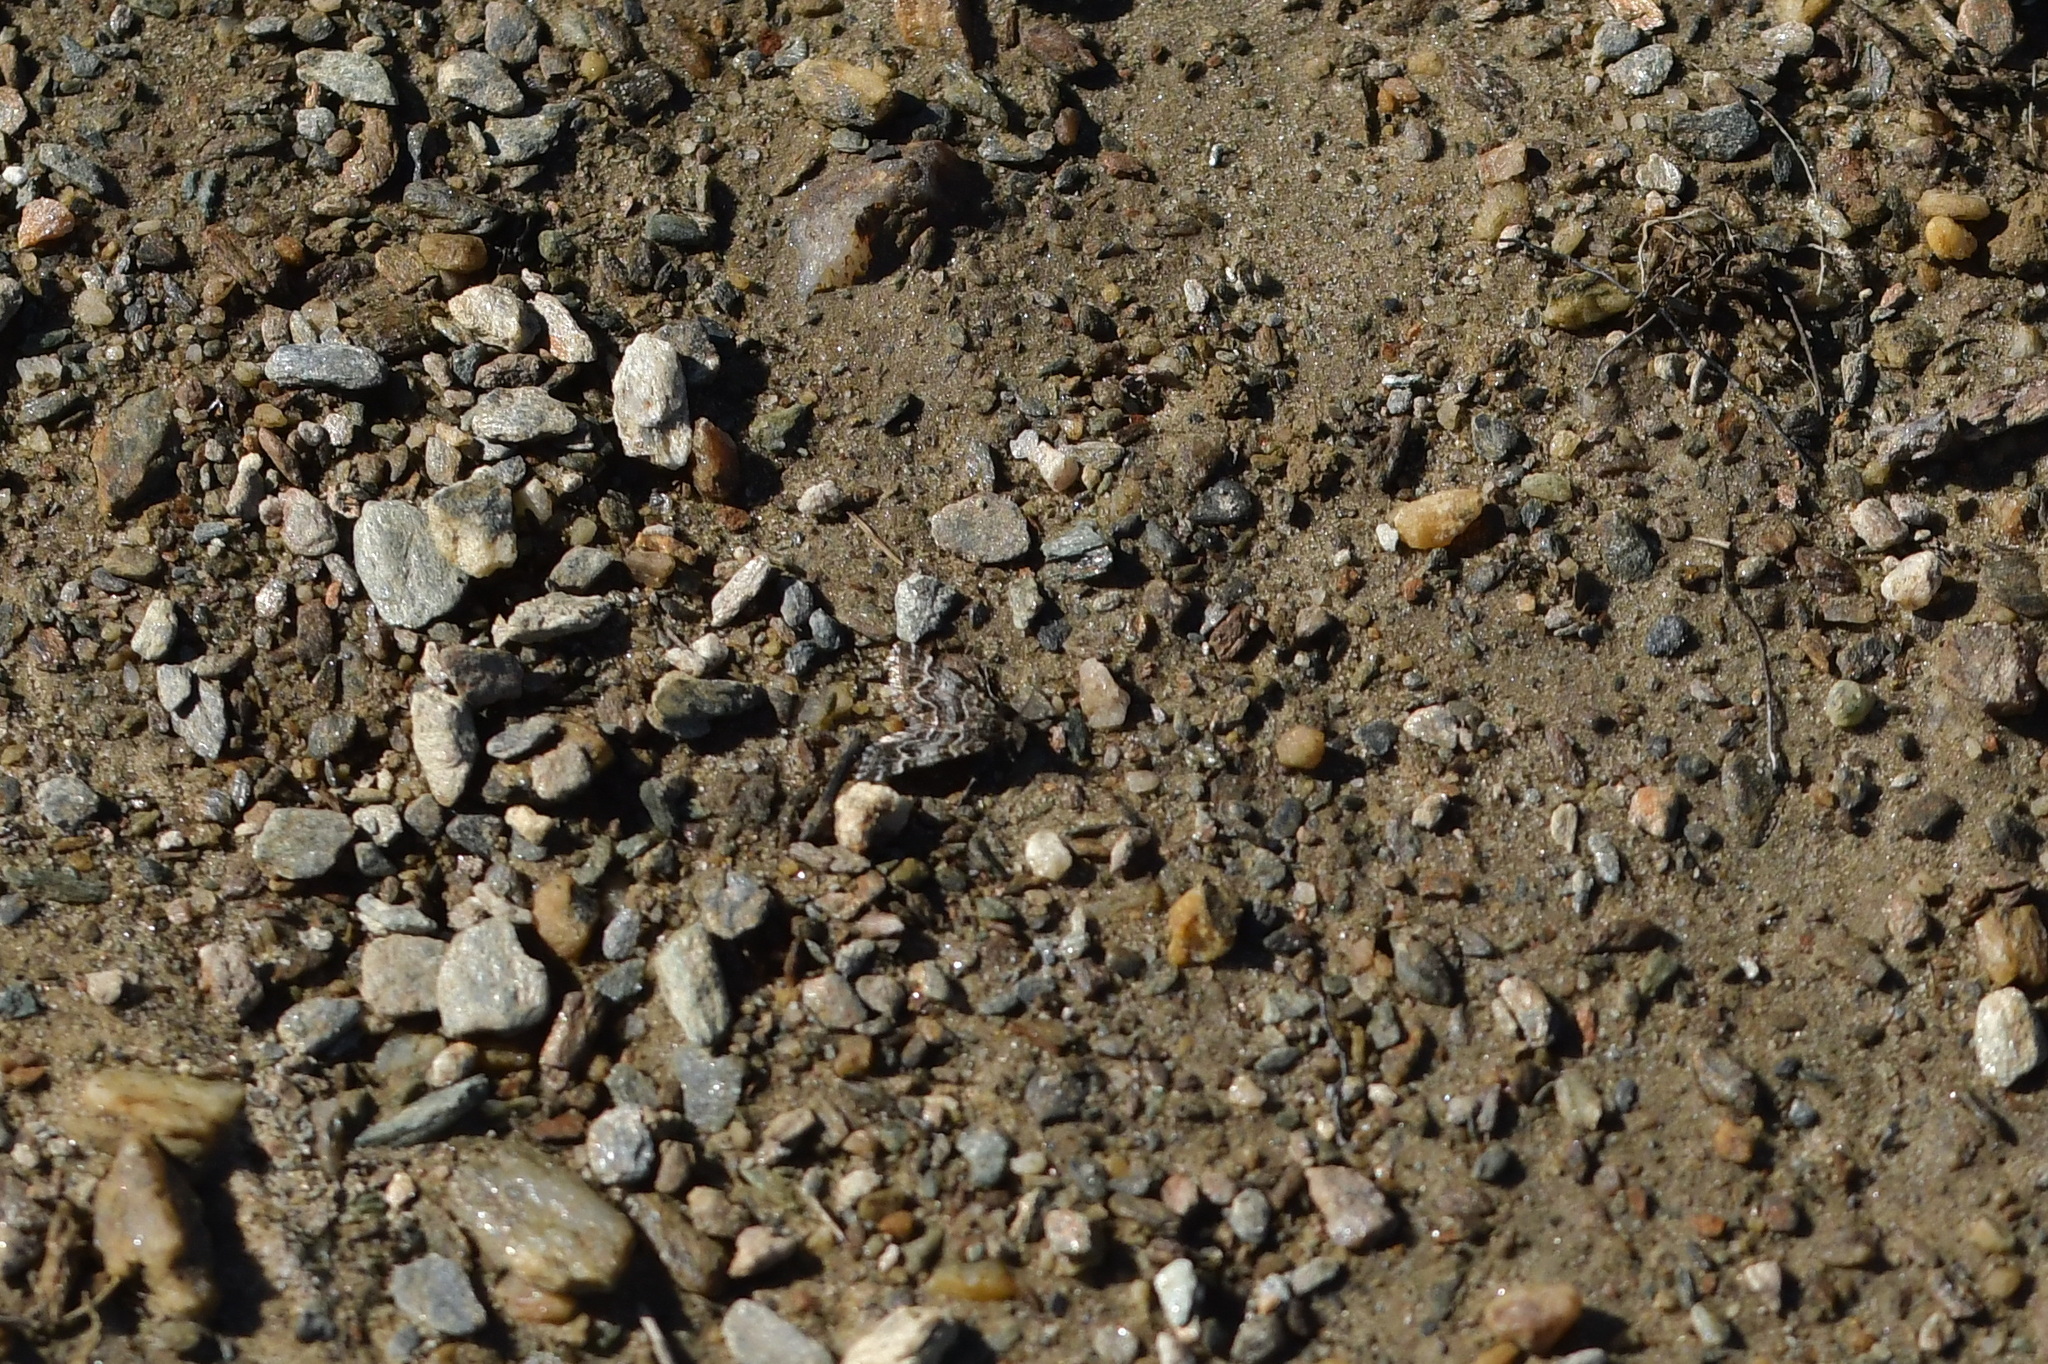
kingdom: Animalia
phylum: Arthropoda
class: Insecta
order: Lepidoptera
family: Geometridae
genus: Arctesthes
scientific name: Arctesthes catapyrrha
